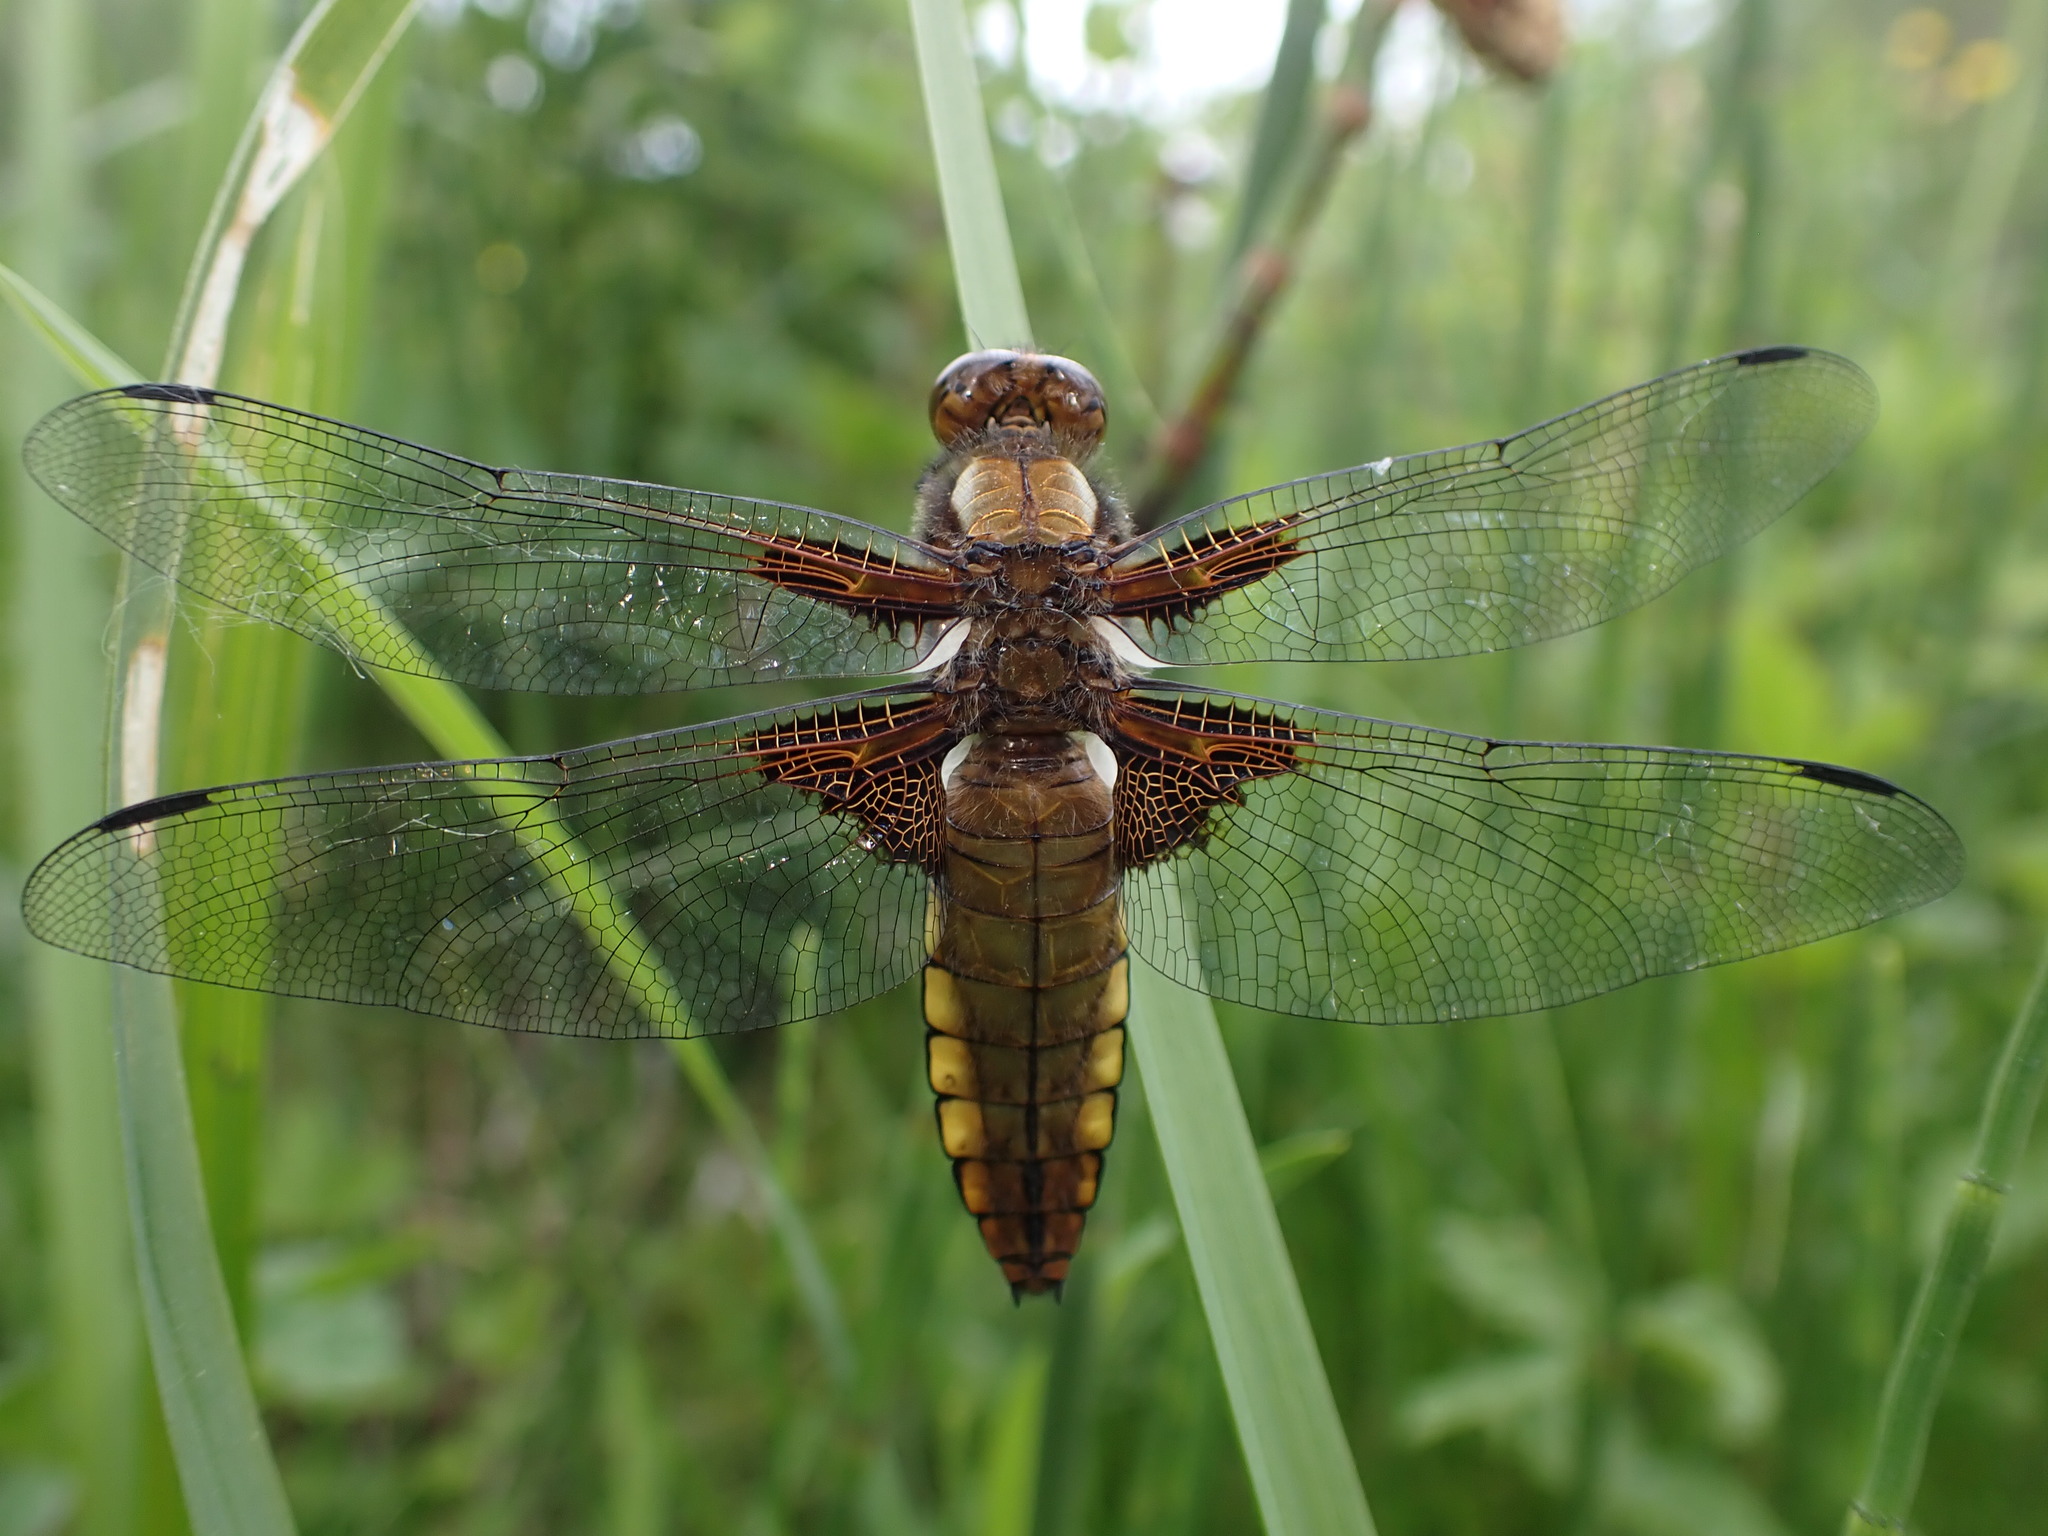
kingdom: Animalia
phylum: Arthropoda
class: Insecta
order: Odonata
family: Libellulidae
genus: Libellula
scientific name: Libellula depressa
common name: Broad-bodied chaser
